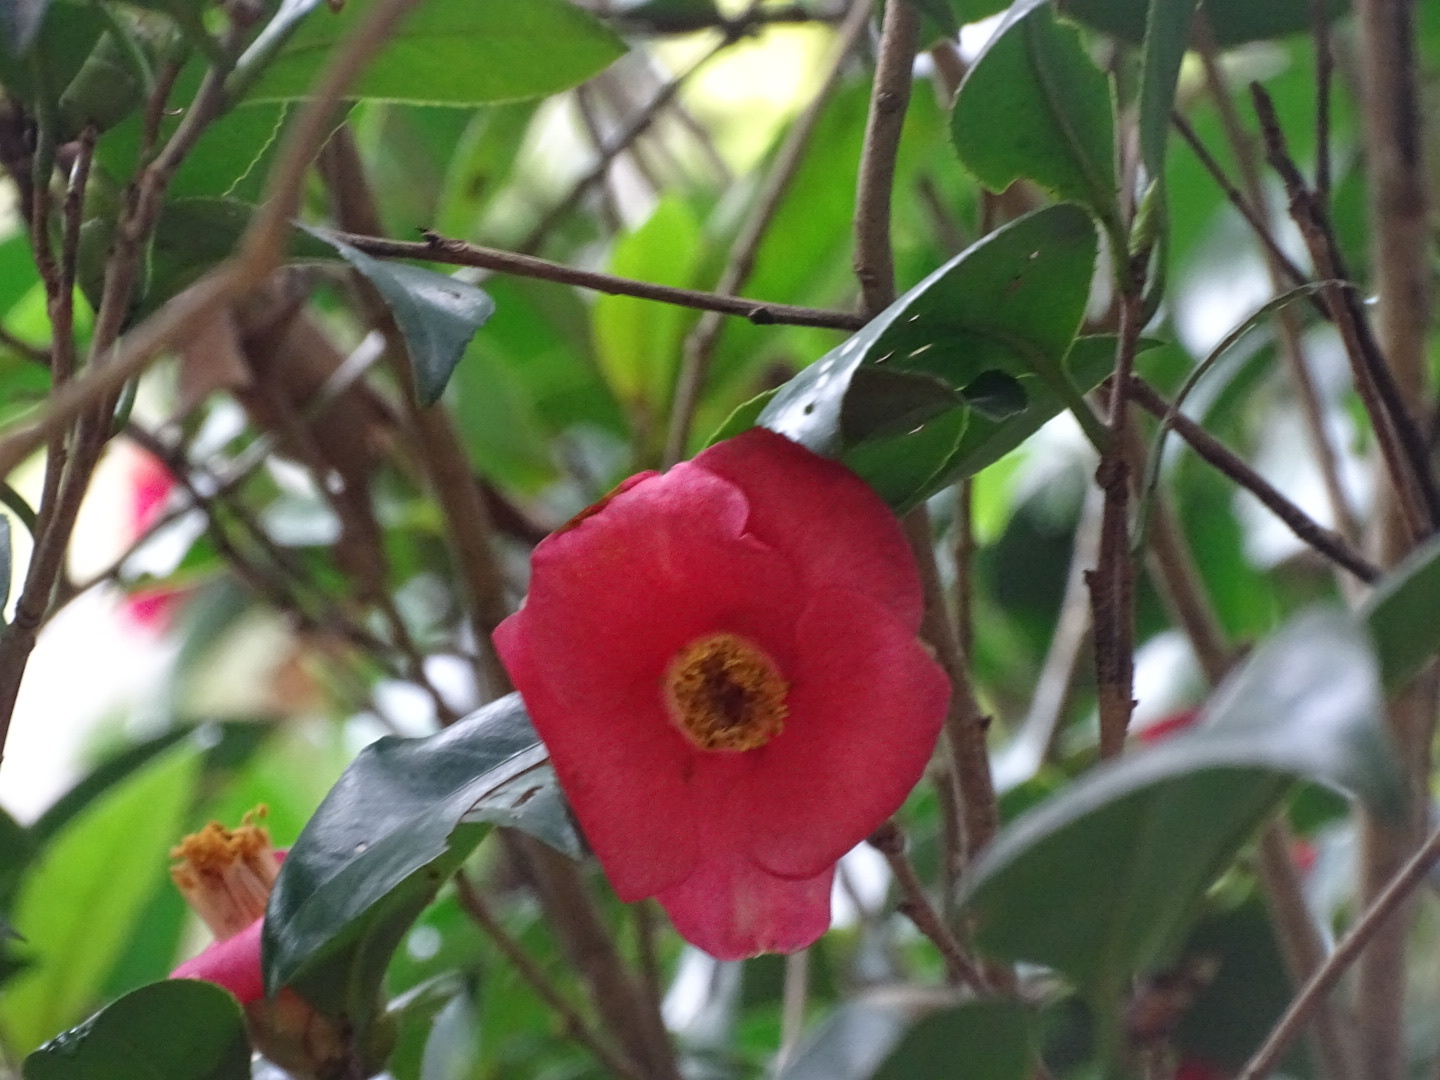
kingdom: Plantae
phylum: Tracheophyta
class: Magnoliopsida
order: Ericales
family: Theaceae
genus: Camellia
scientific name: Camellia hongkongensis
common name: Hong kong camellia
